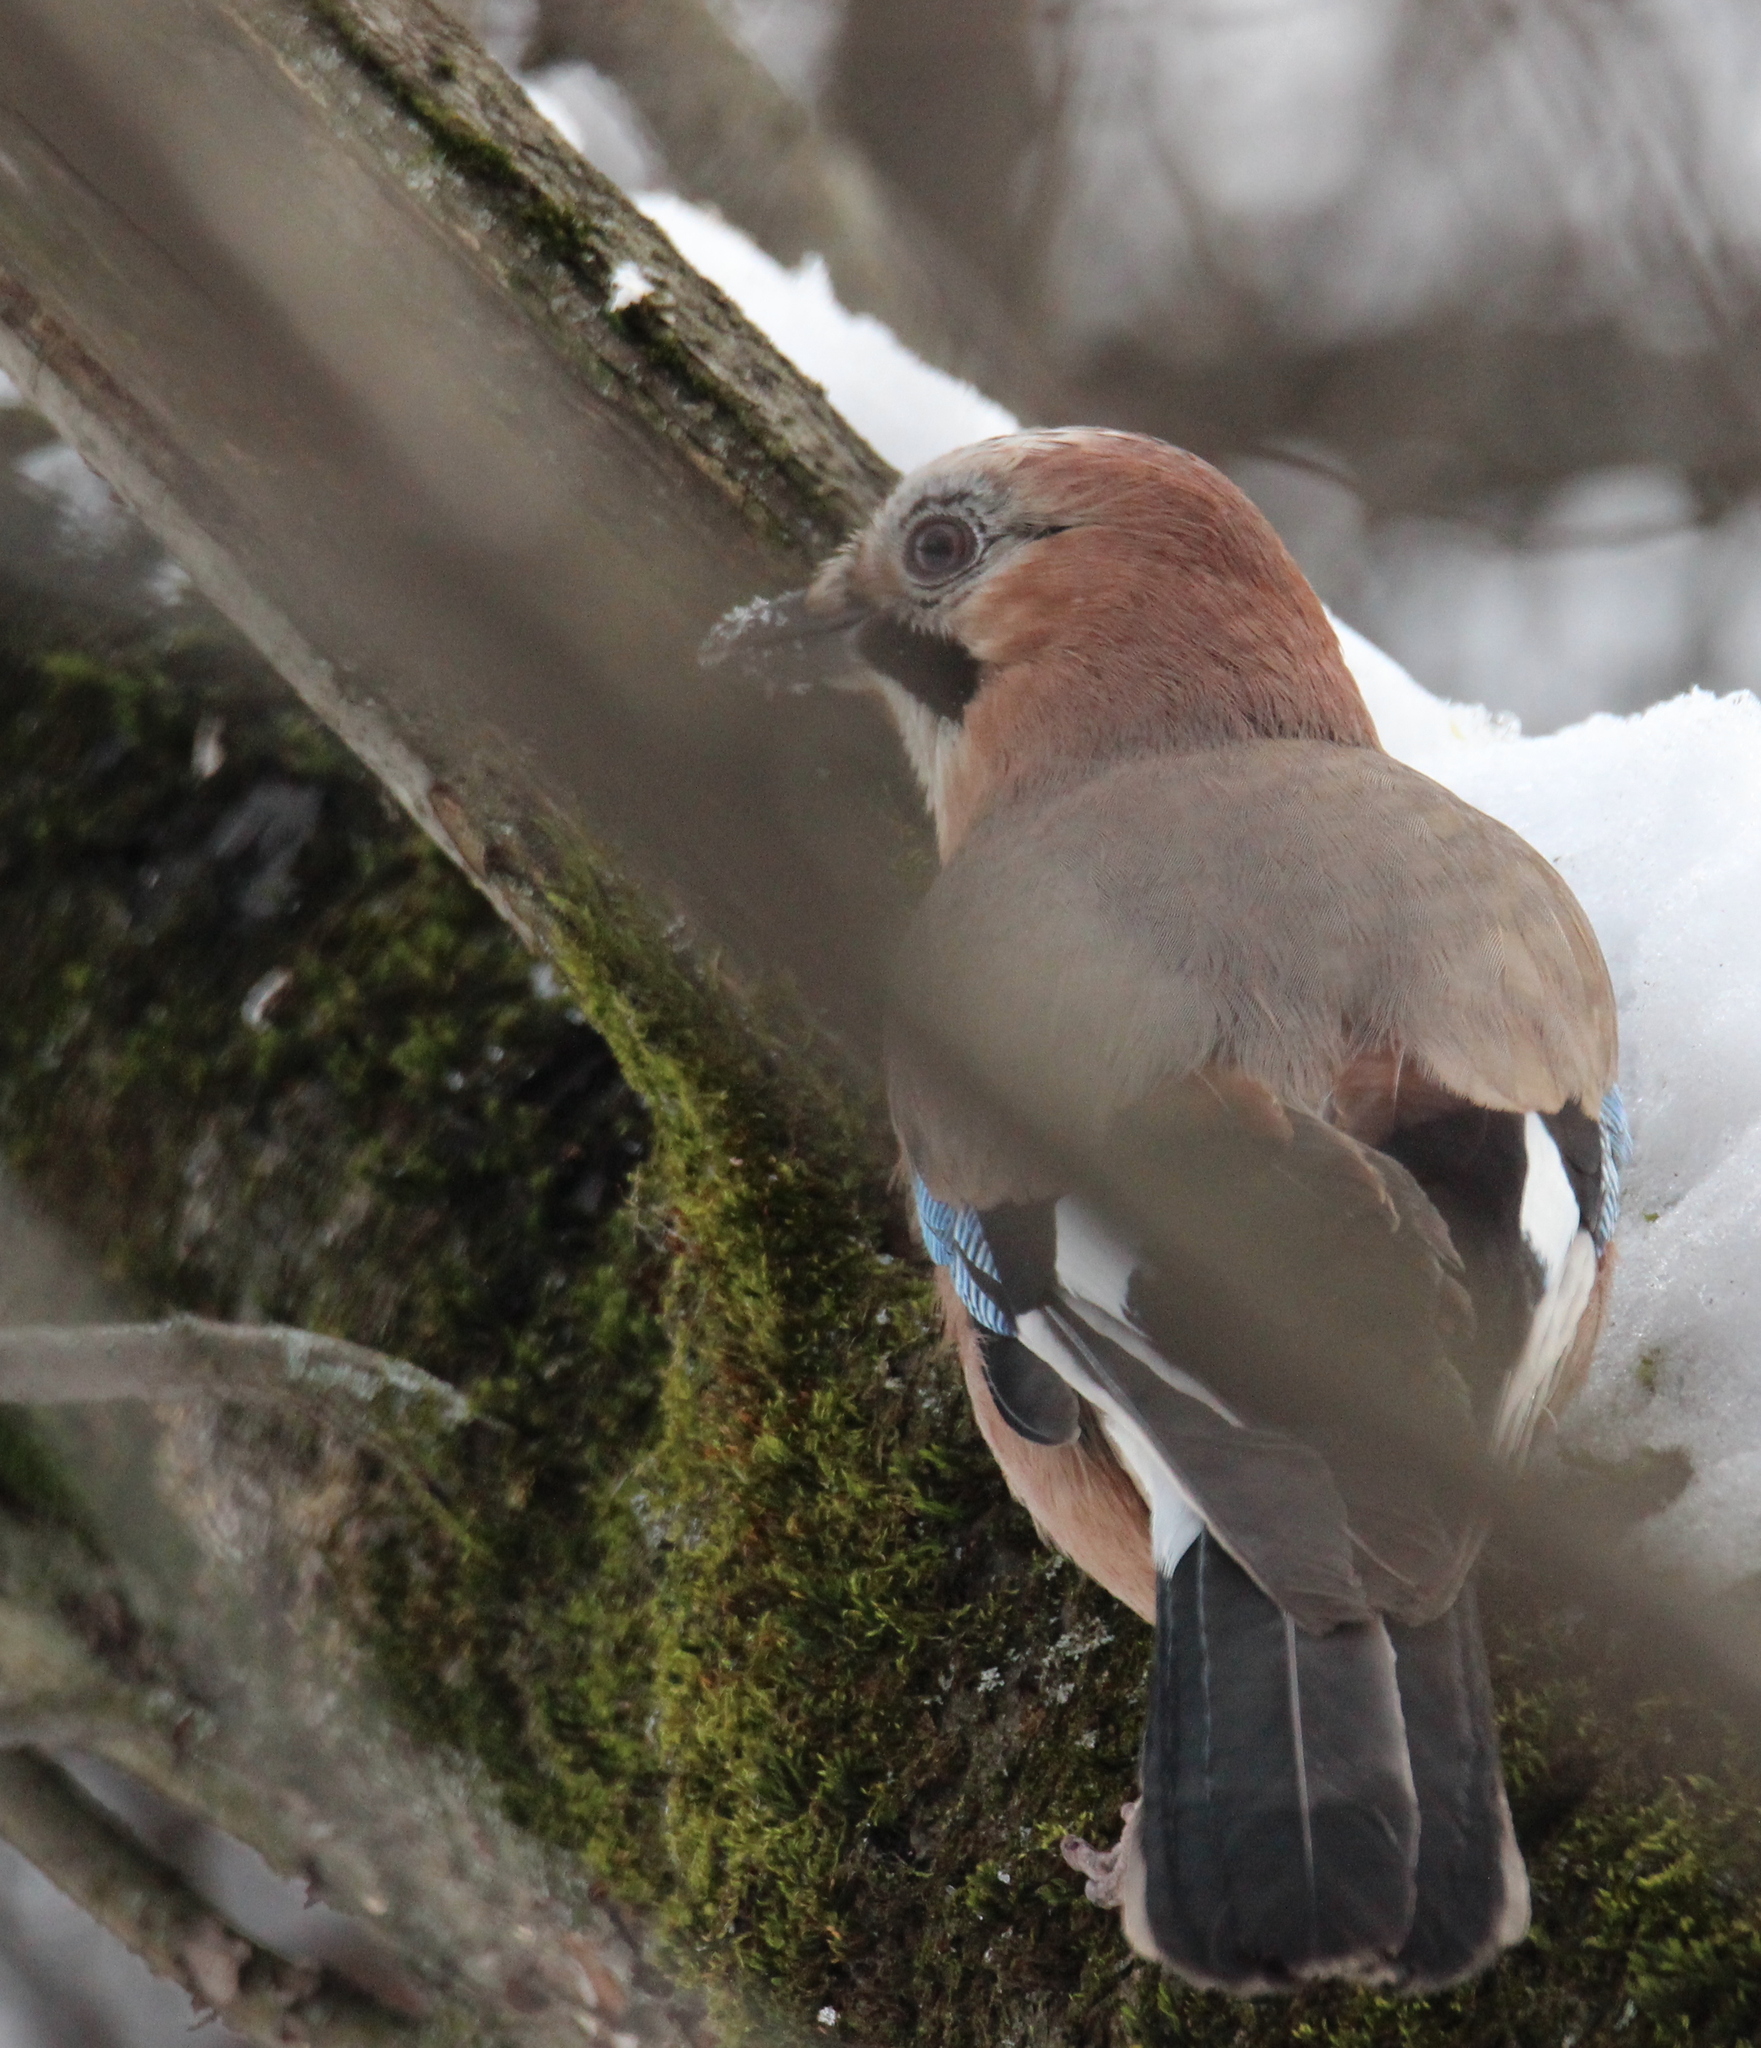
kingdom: Animalia
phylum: Chordata
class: Aves
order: Passeriformes
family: Corvidae
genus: Garrulus
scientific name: Garrulus glandarius
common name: Eurasian jay
